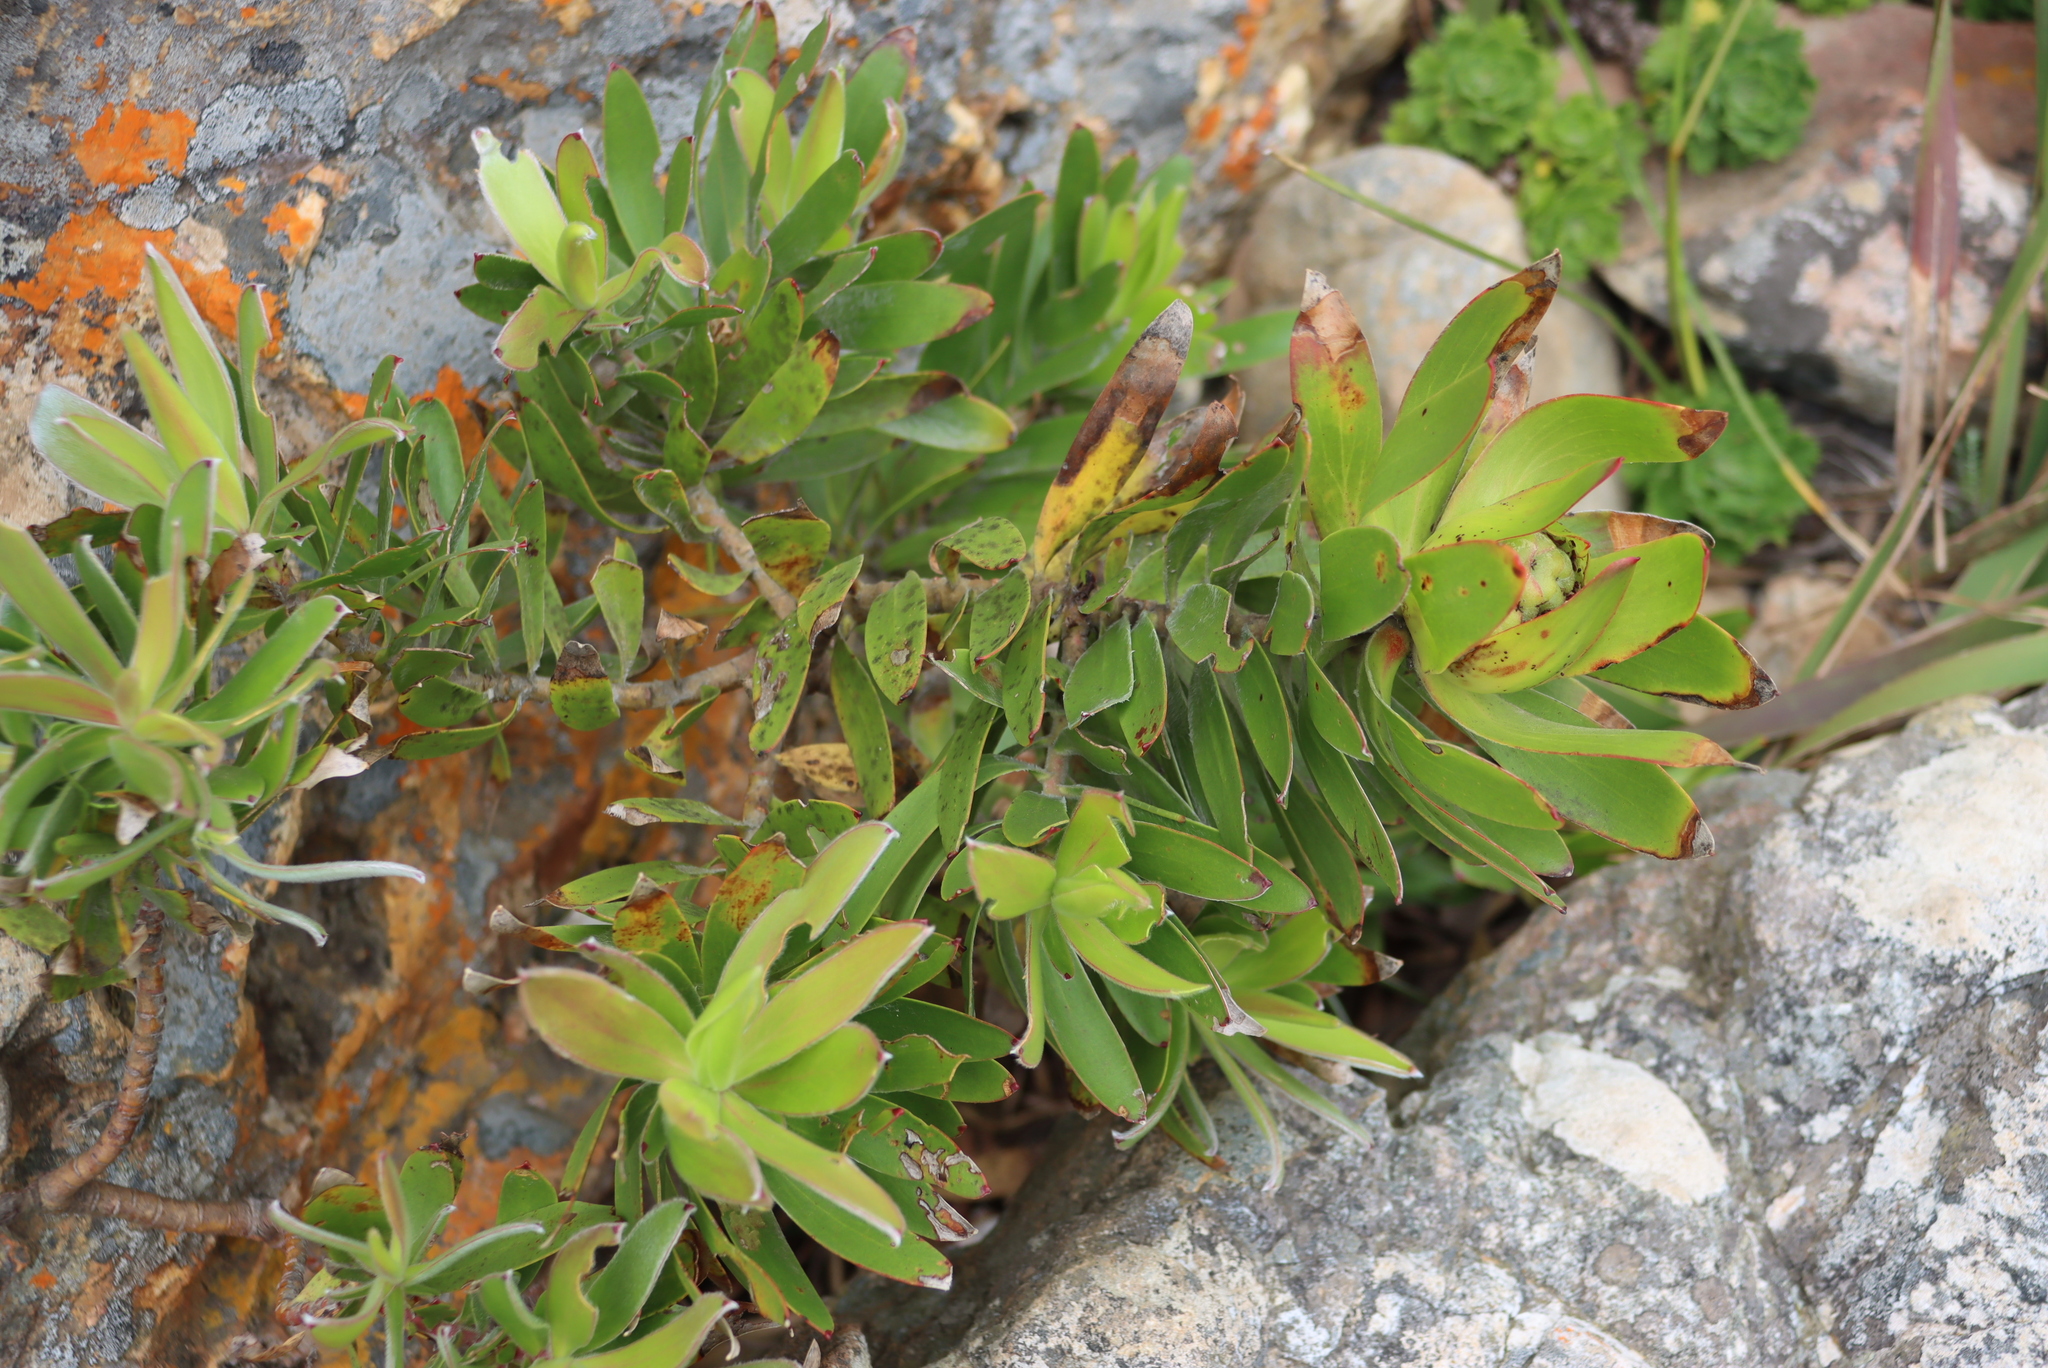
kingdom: Plantae
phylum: Tracheophyta
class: Magnoliopsida
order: Proteales
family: Proteaceae
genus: Leucadendron
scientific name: Leucadendron laureolum
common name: Golden sunshinebush
